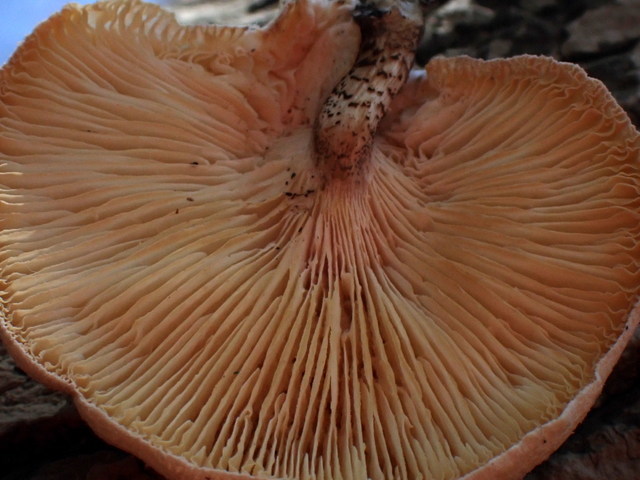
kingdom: Fungi
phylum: Basidiomycota
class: Agaricomycetes
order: Polyporales
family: Polyporaceae
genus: Lentinus
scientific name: Lentinus tigrinus
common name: Tiger sawgill
